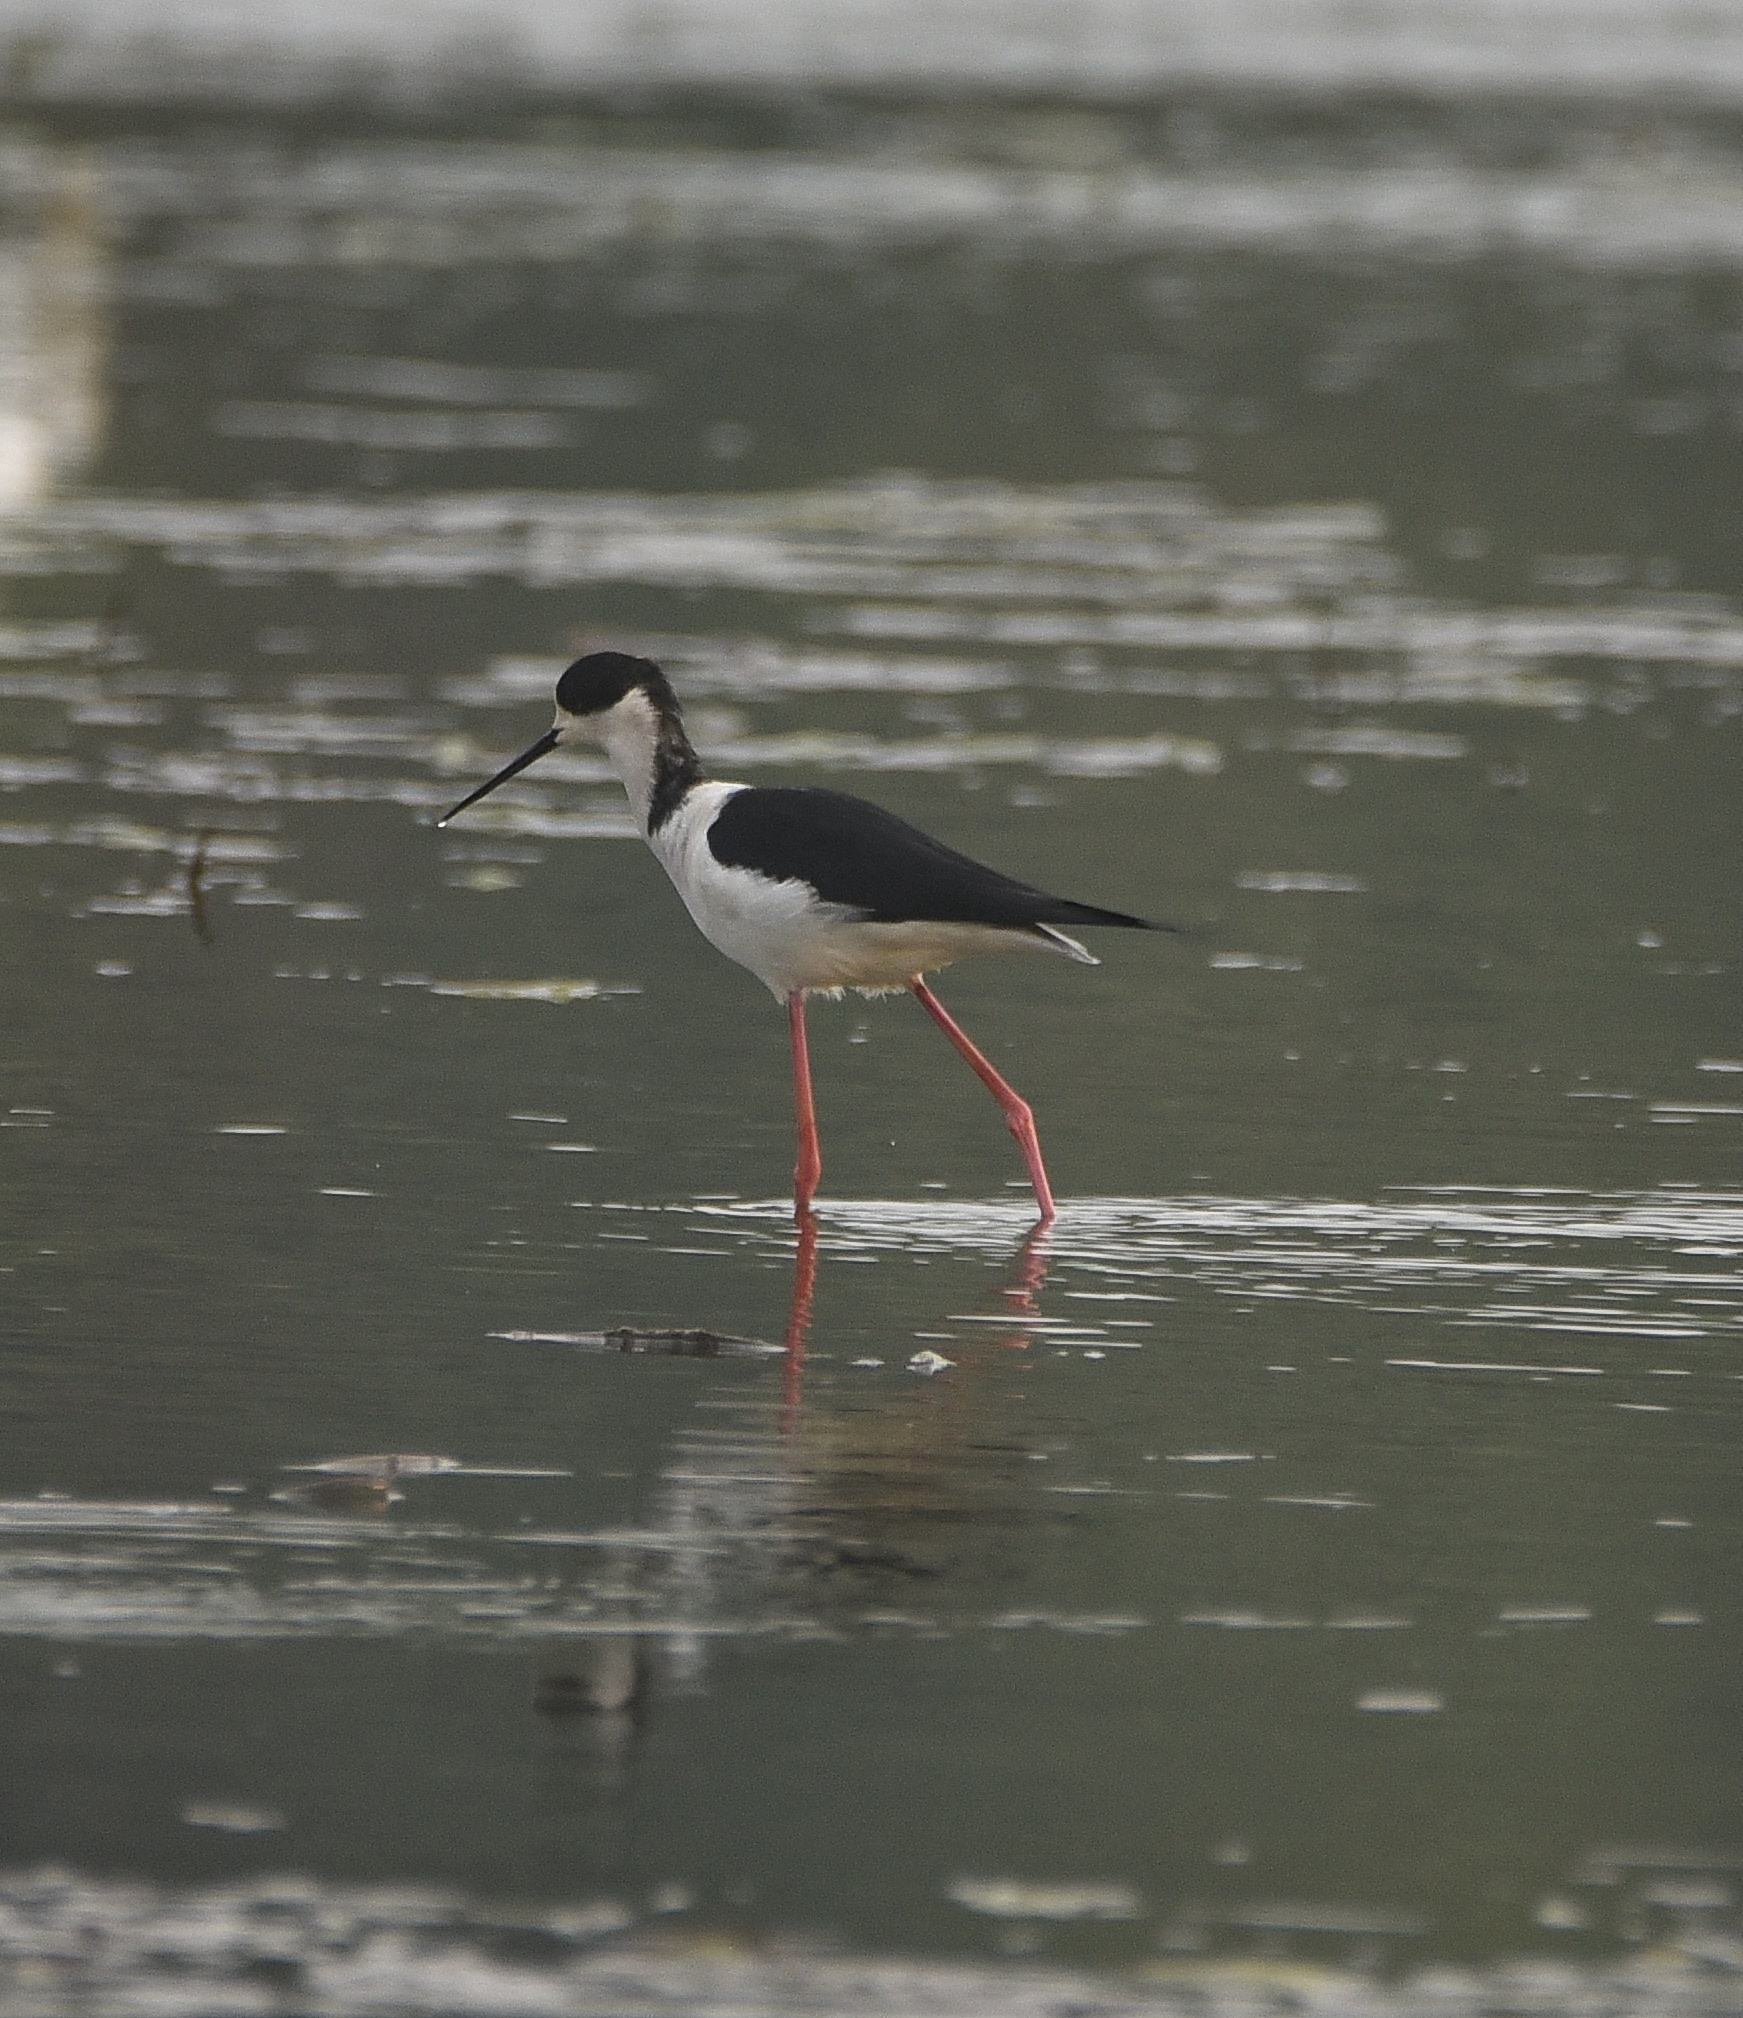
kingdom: Animalia
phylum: Chordata
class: Aves
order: Charadriiformes
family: Recurvirostridae
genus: Himantopus
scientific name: Himantopus himantopus
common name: Black-winged stilt
